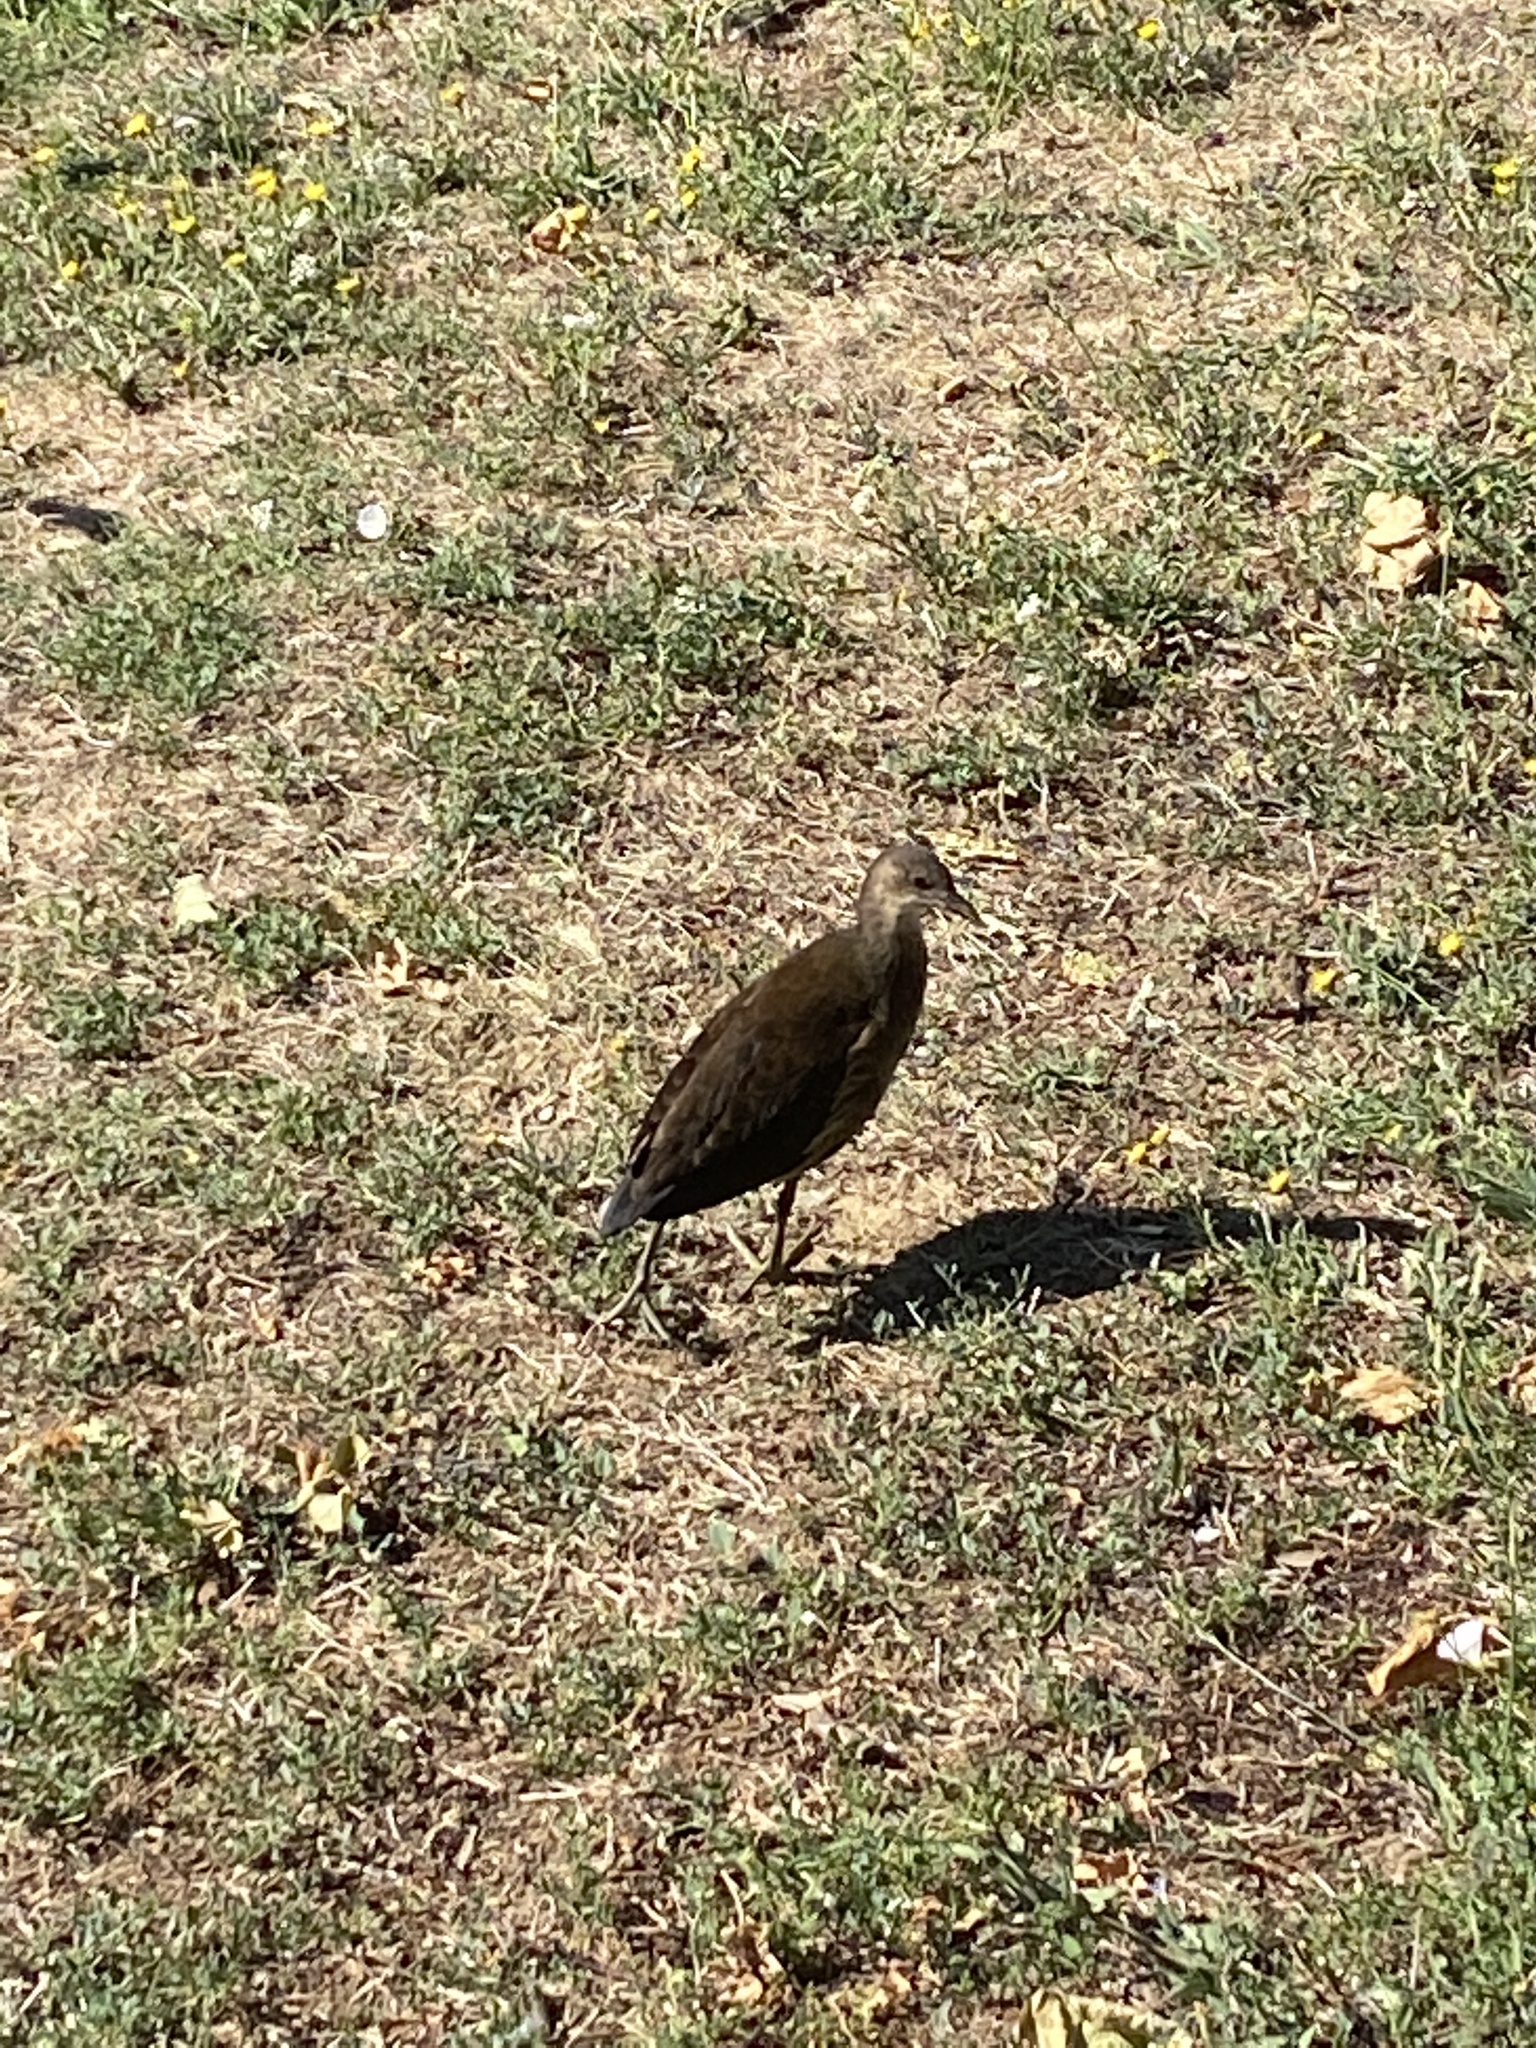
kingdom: Animalia
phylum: Chordata
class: Aves
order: Gruiformes
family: Rallidae
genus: Gallinula
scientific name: Gallinula chloropus
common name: Common moorhen
